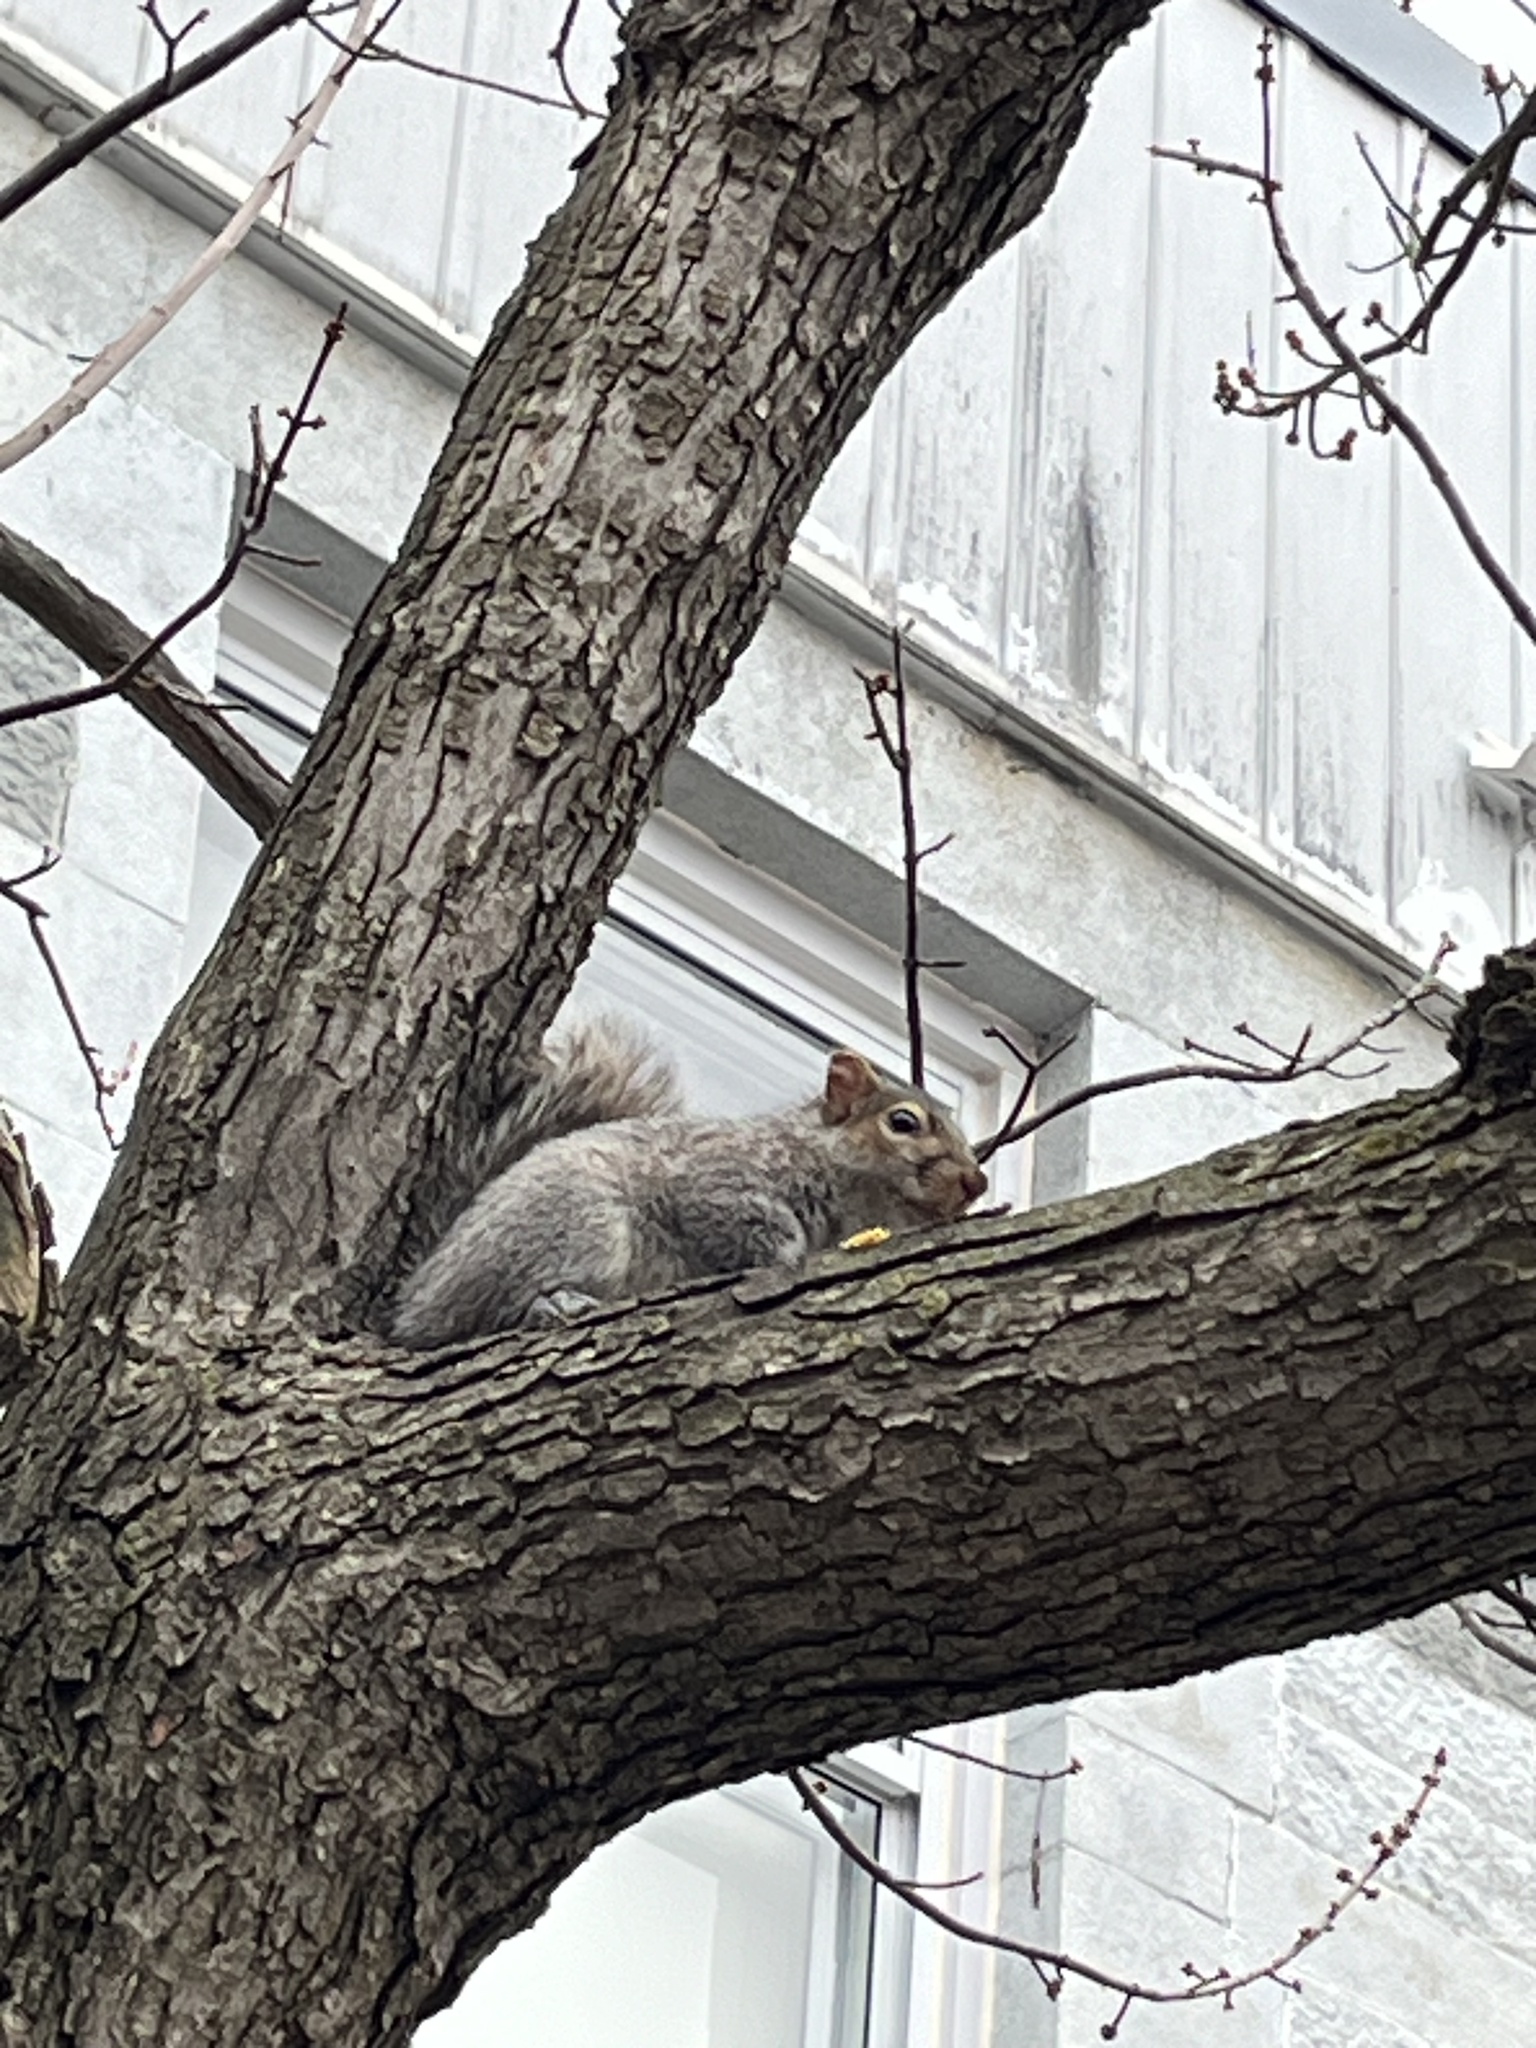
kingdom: Animalia
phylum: Chordata
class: Mammalia
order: Rodentia
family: Sciuridae
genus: Sciurus
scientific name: Sciurus carolinensis
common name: Eastern gray squirrel
